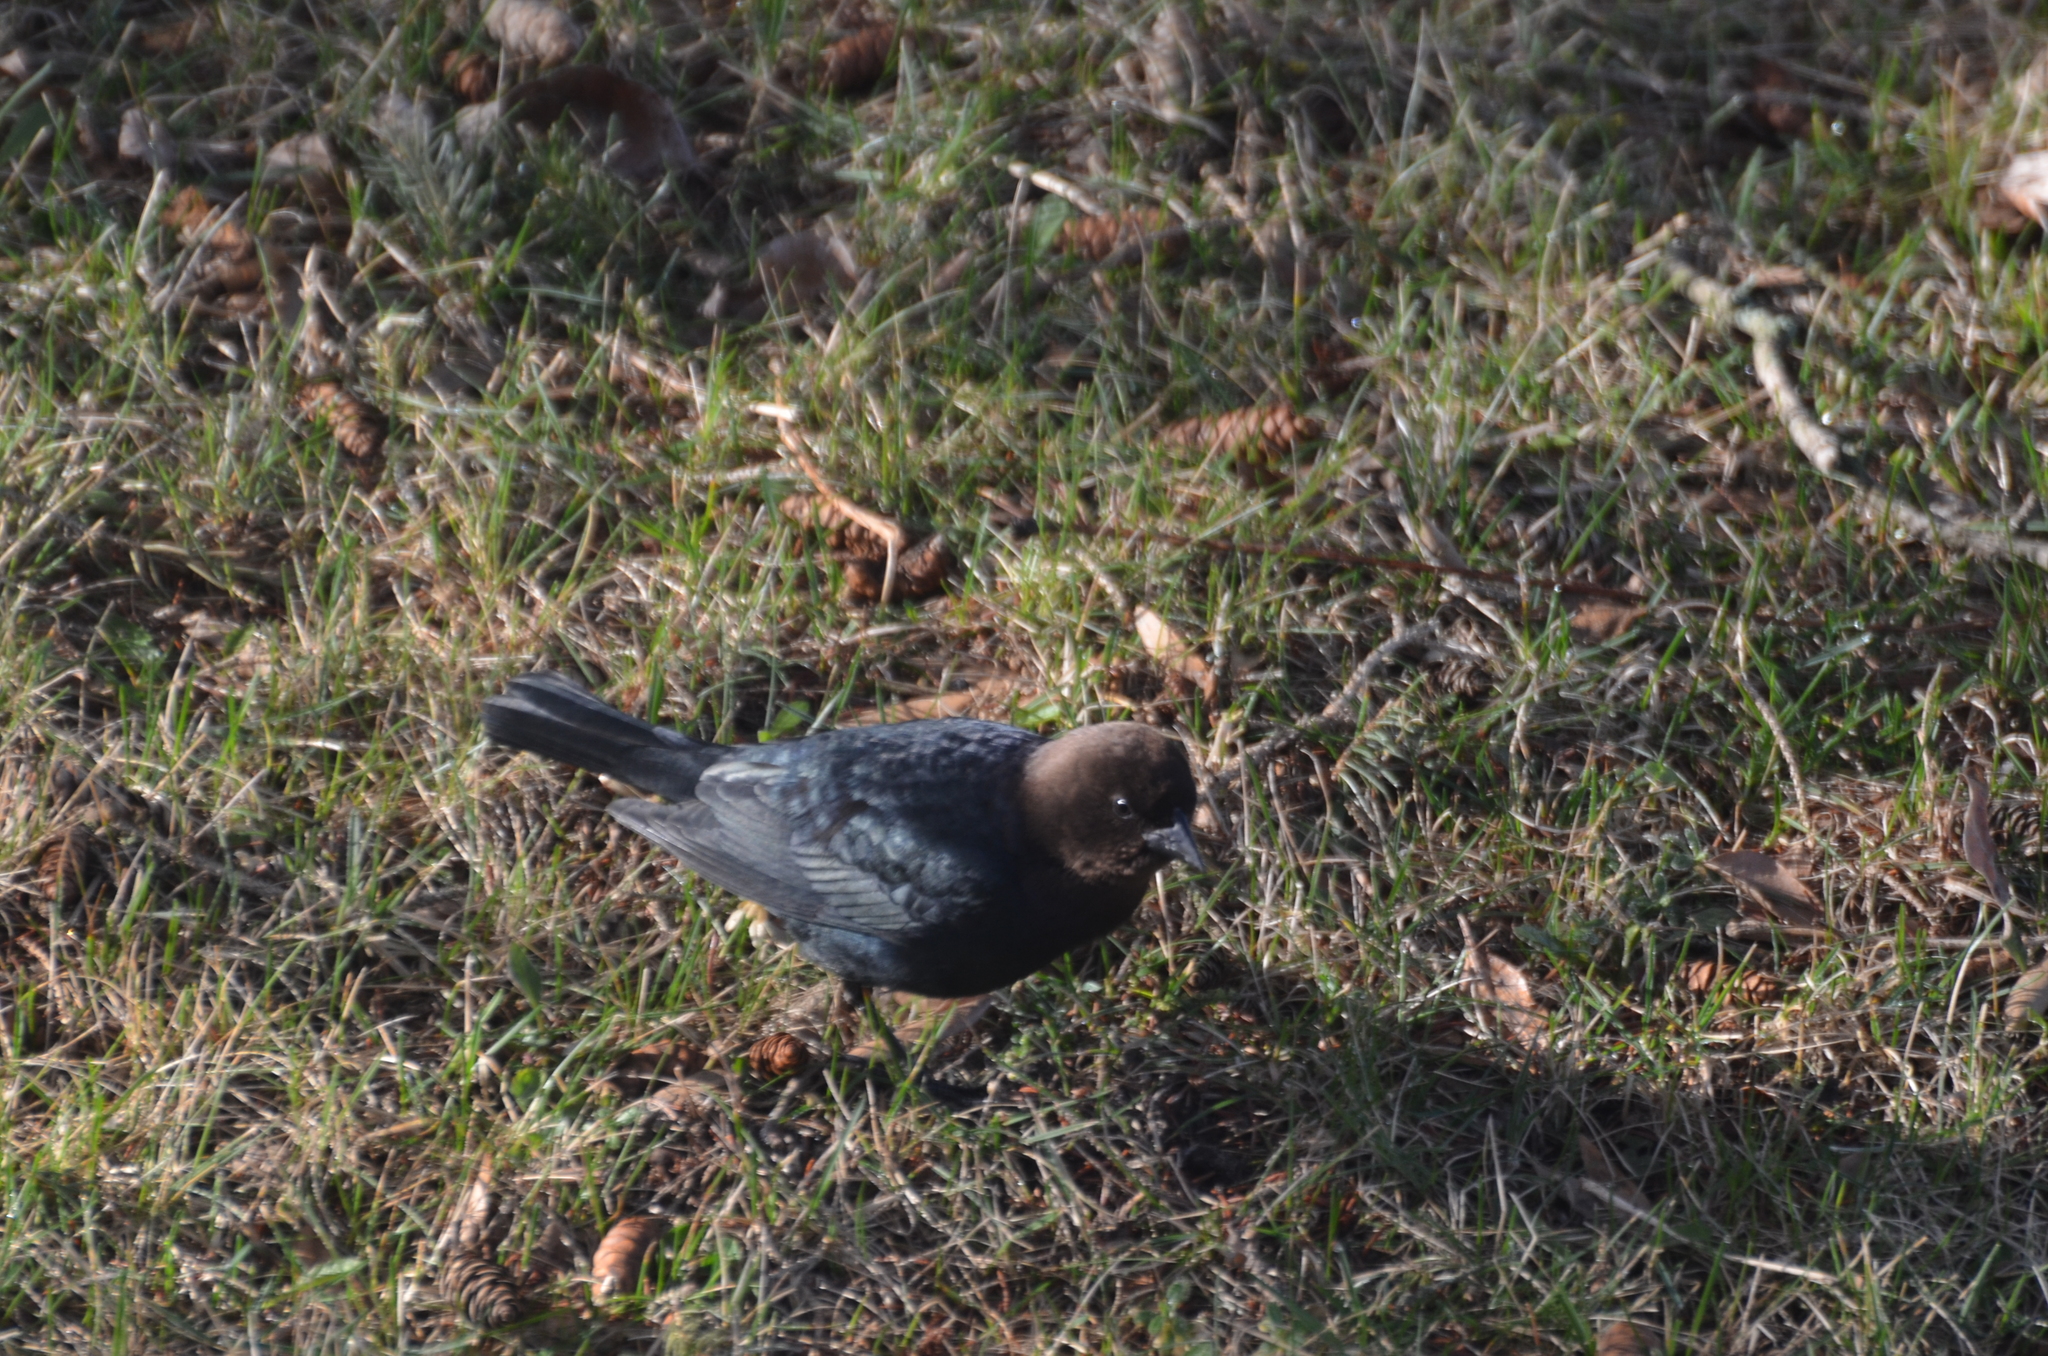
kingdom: Animalia
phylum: Chordata
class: Aves
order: Passeriformes
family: Icteridae
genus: Molothrus
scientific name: Molothrus ater
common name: Brown-headed cowbird
